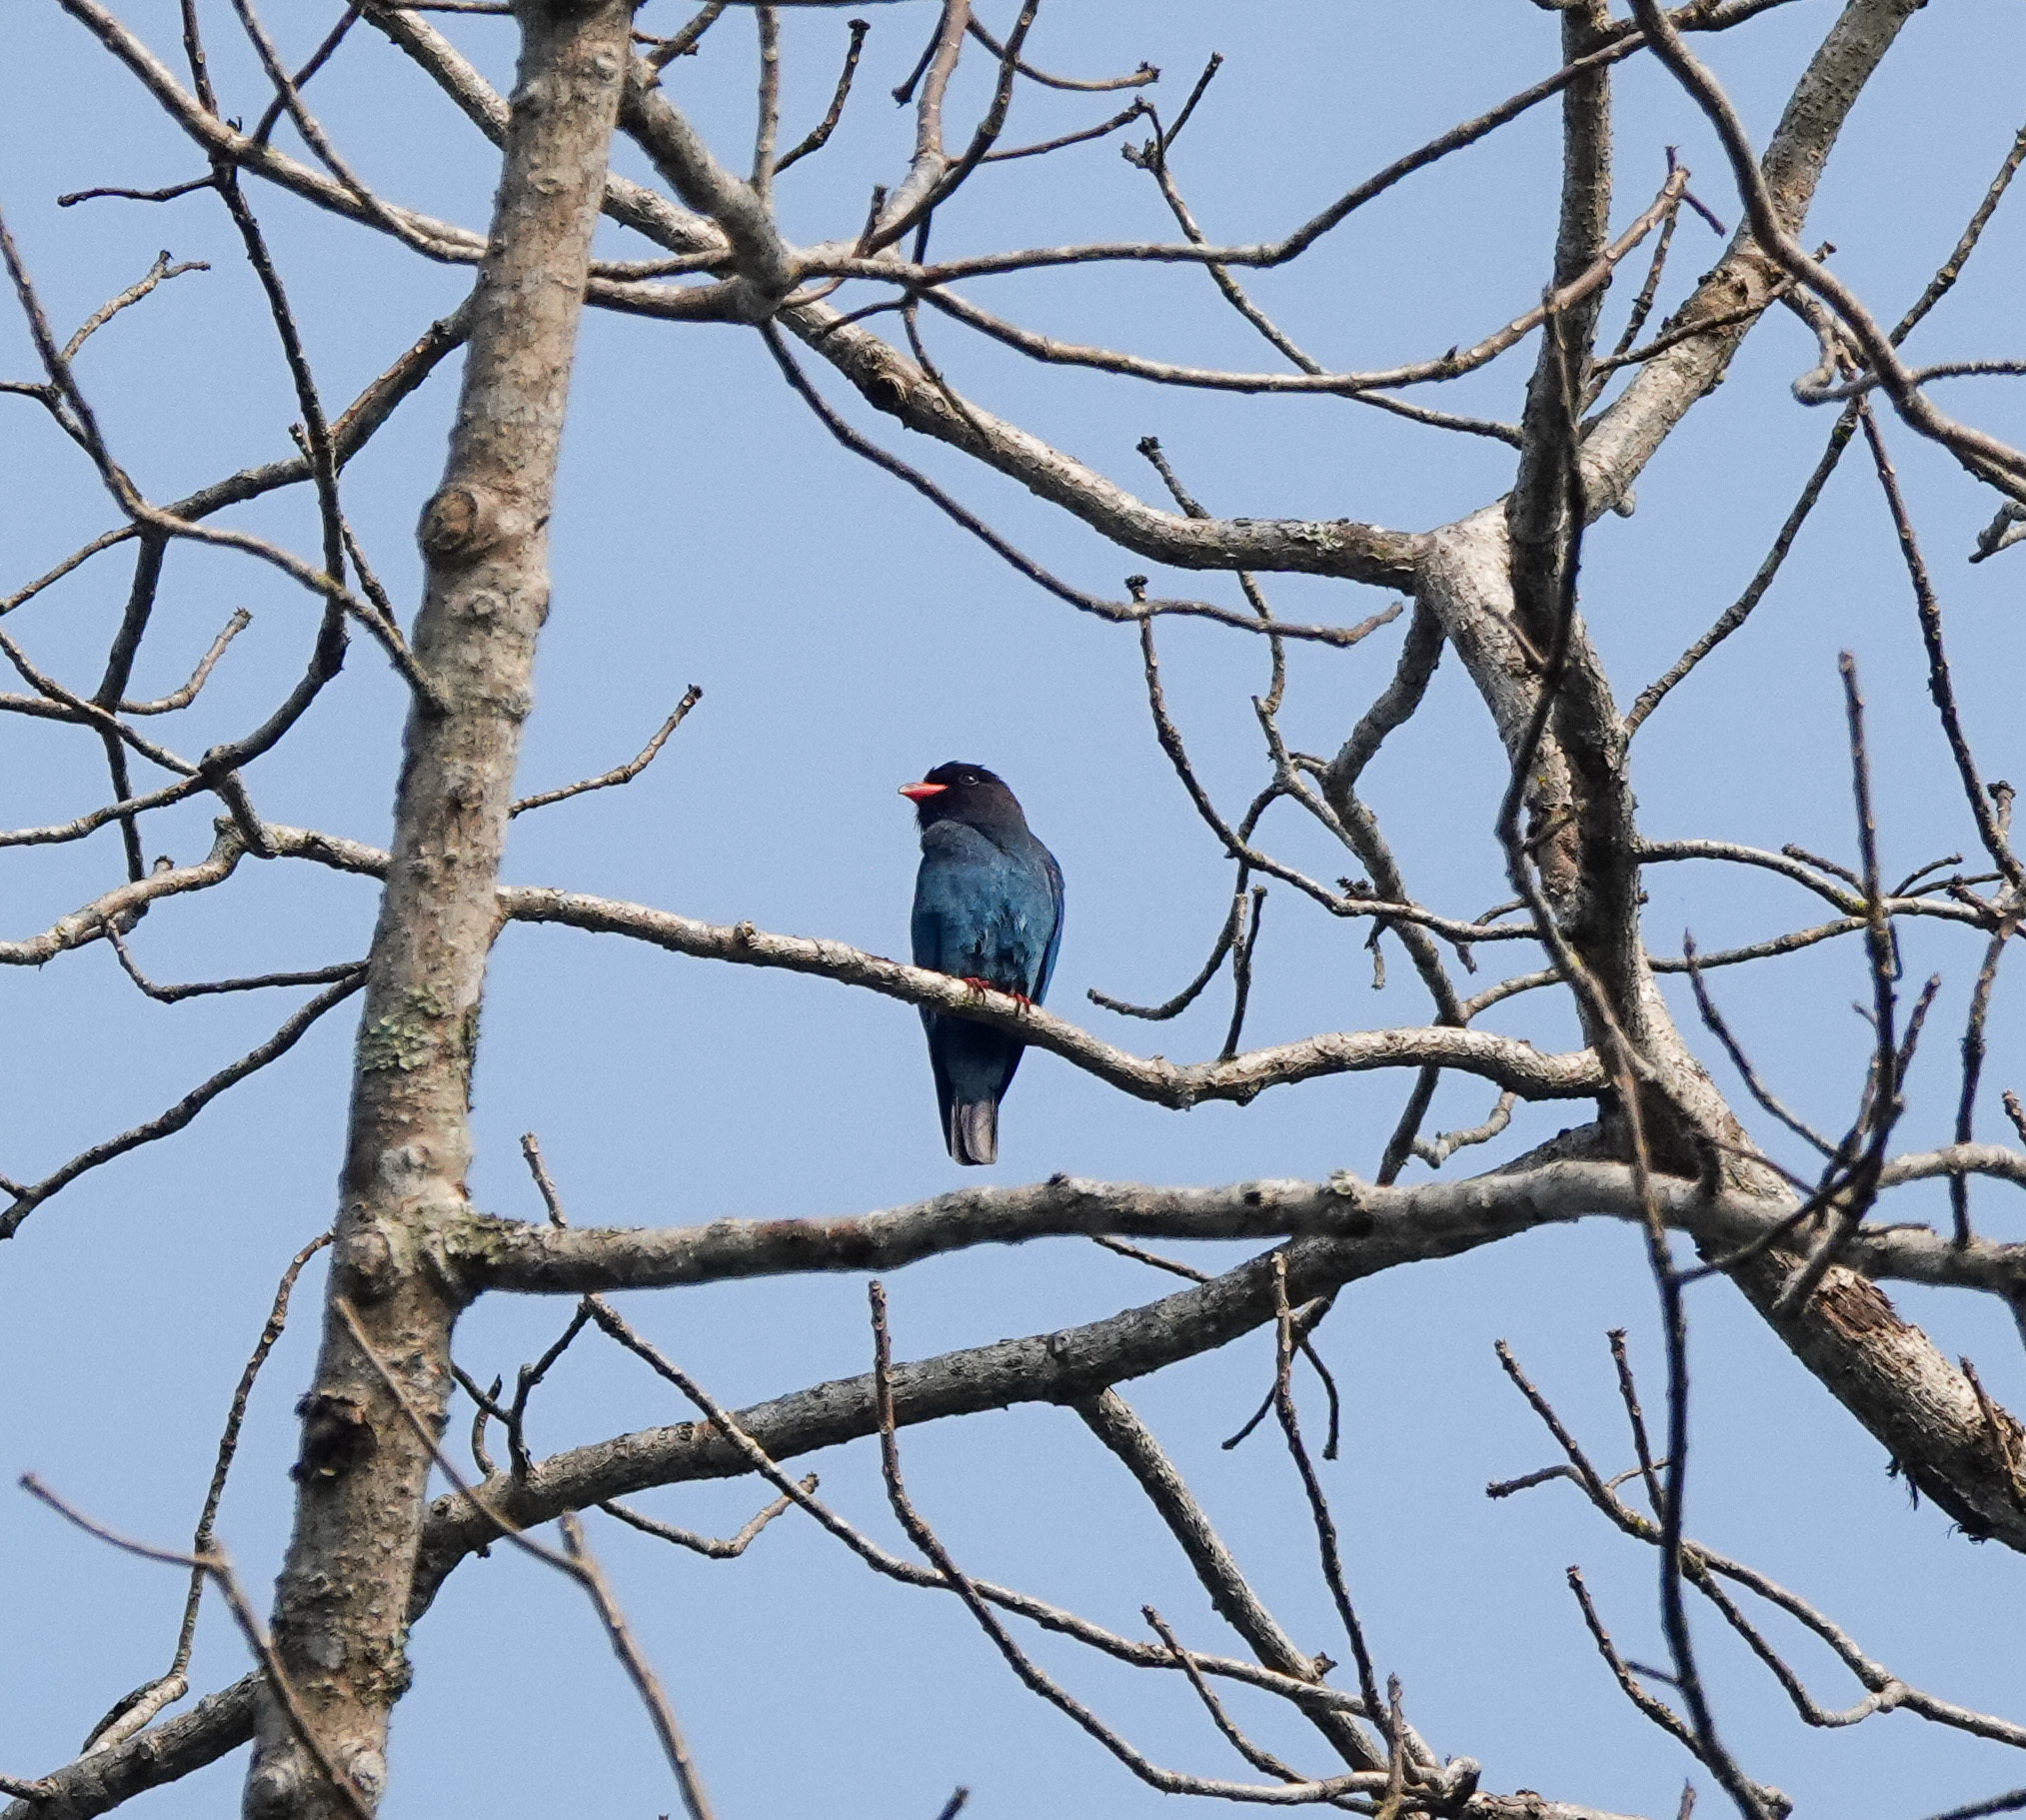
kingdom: Animalia
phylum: Chordata
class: Aves
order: Coraciiformes
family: Coraciidae
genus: Eurystomus
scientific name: Eurystomus orientalis
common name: Oriental dollarbird
